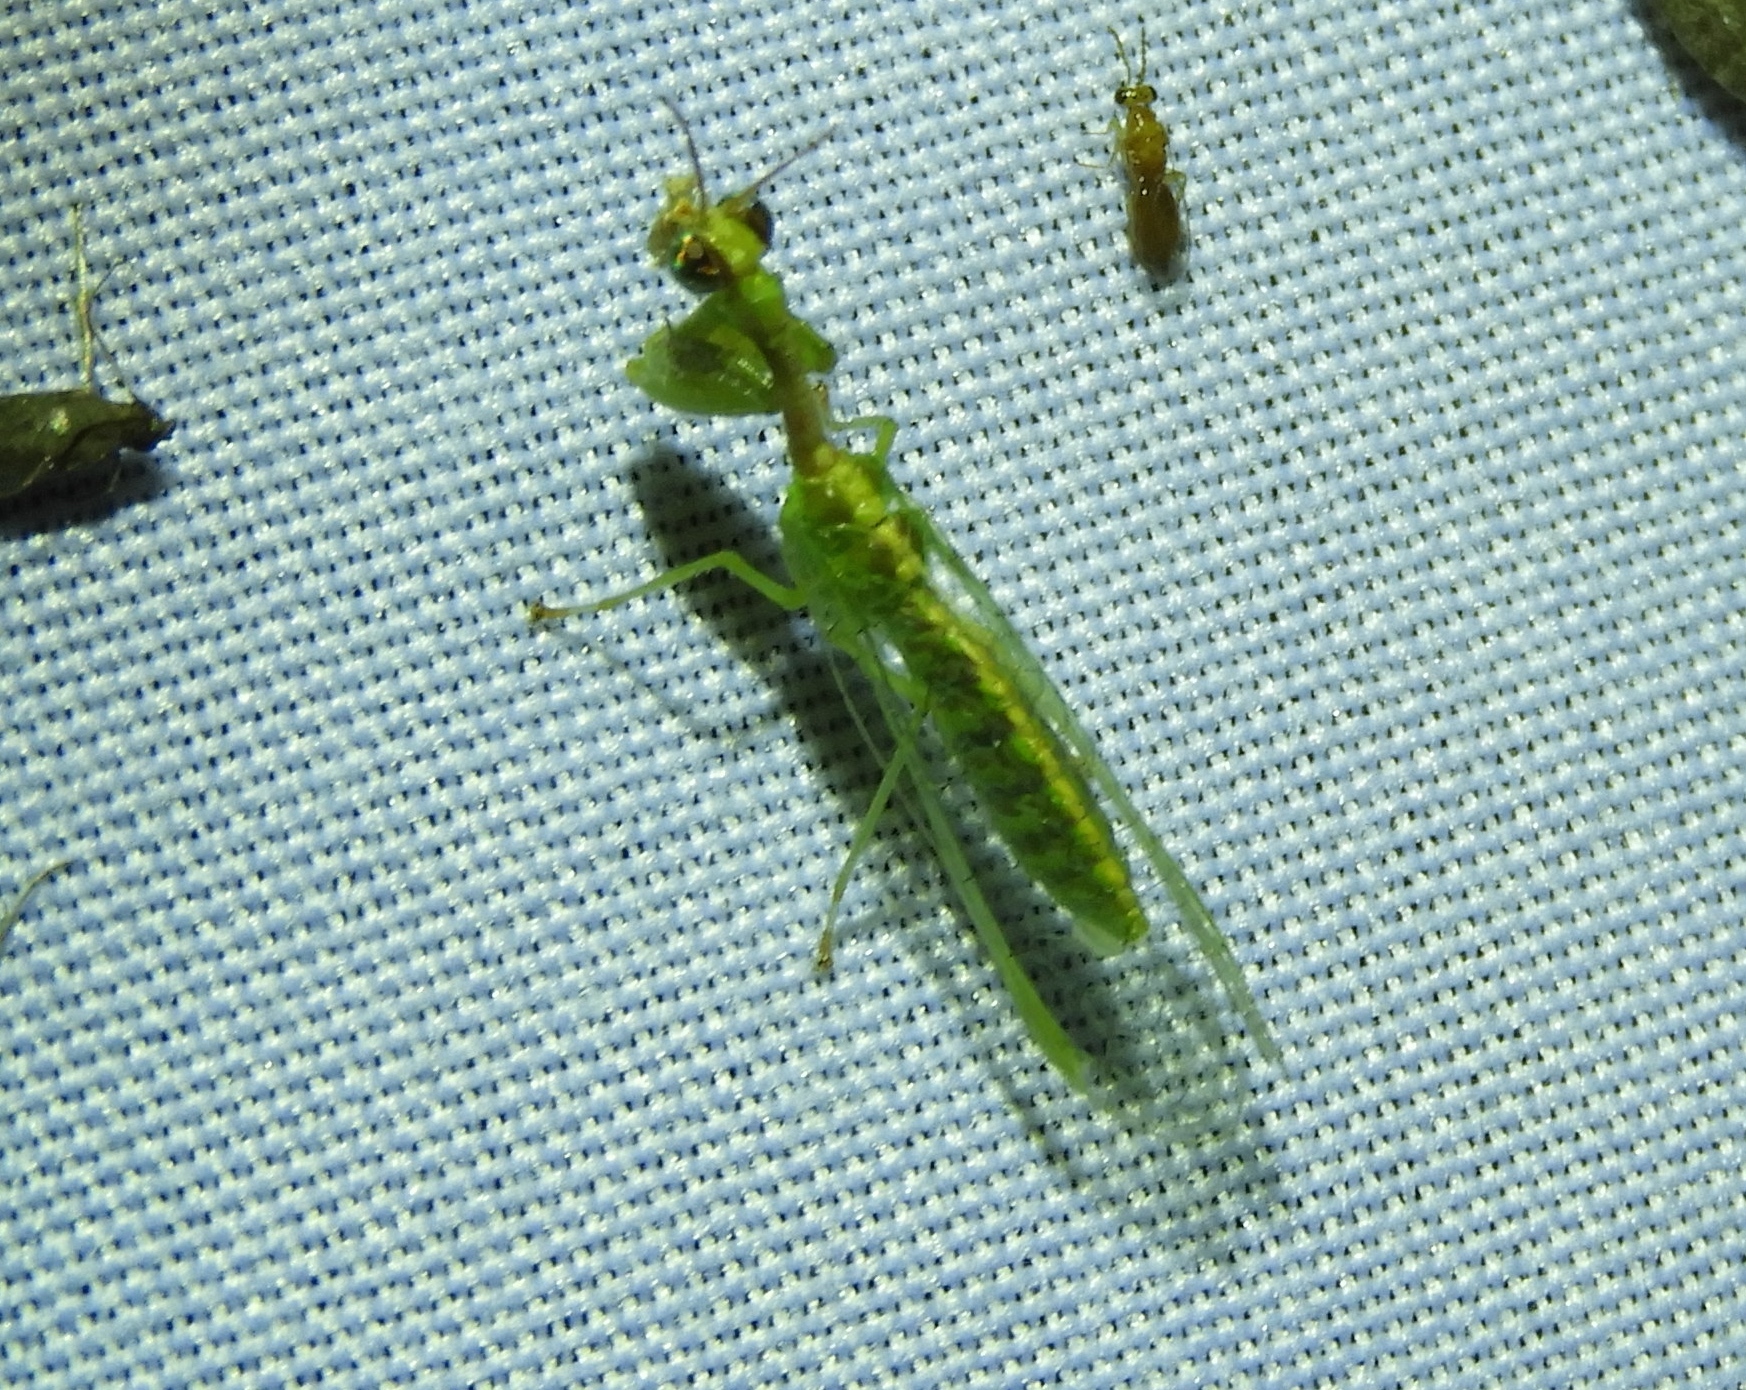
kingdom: Animalia
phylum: Arthropoda
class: Insecta
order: Neuroptera
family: Mantispidae
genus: Dicromantispa
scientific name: Dicromantispa interrupta
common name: Four-spotted mantidfly
